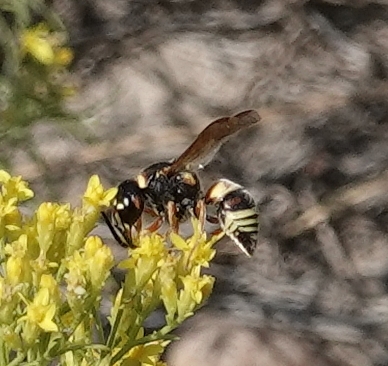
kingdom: Animalia
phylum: Arthropoda
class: Insecta
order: Hymenoptera
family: Eumenidae
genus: Euodynerus
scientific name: Euodynerus annulatus
